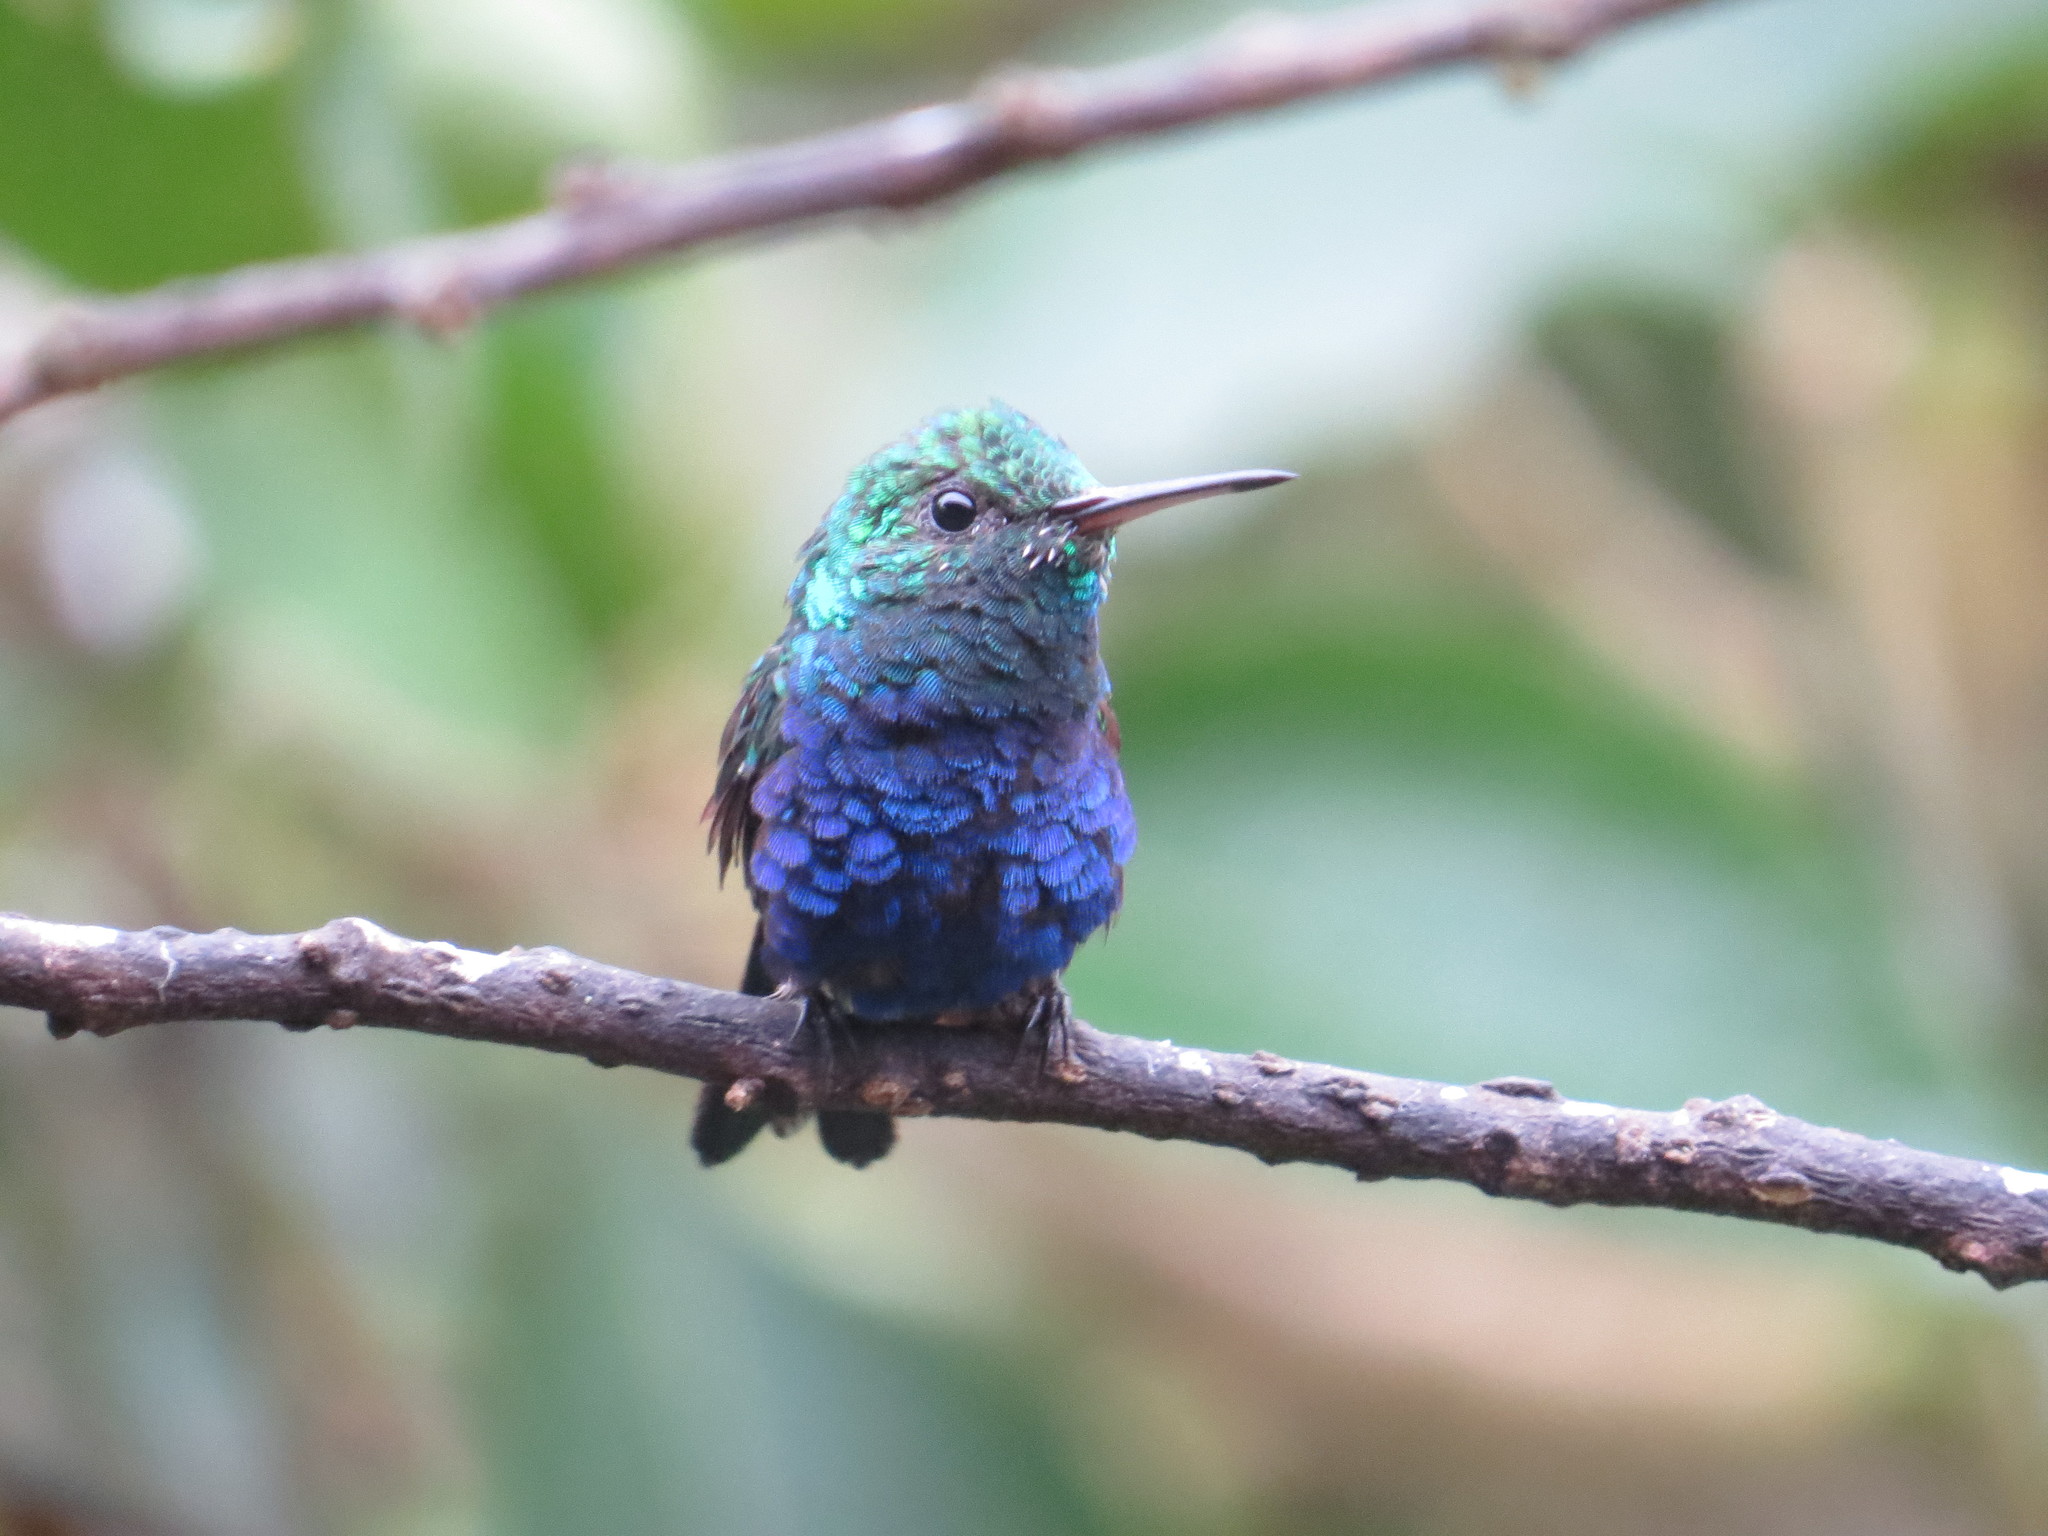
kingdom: Animalia
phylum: Chordata
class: Aves
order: Apodiformes
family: Trochilidae
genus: Chlorestes
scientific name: Chlorestes julie
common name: Violet-bellied hummingbird
